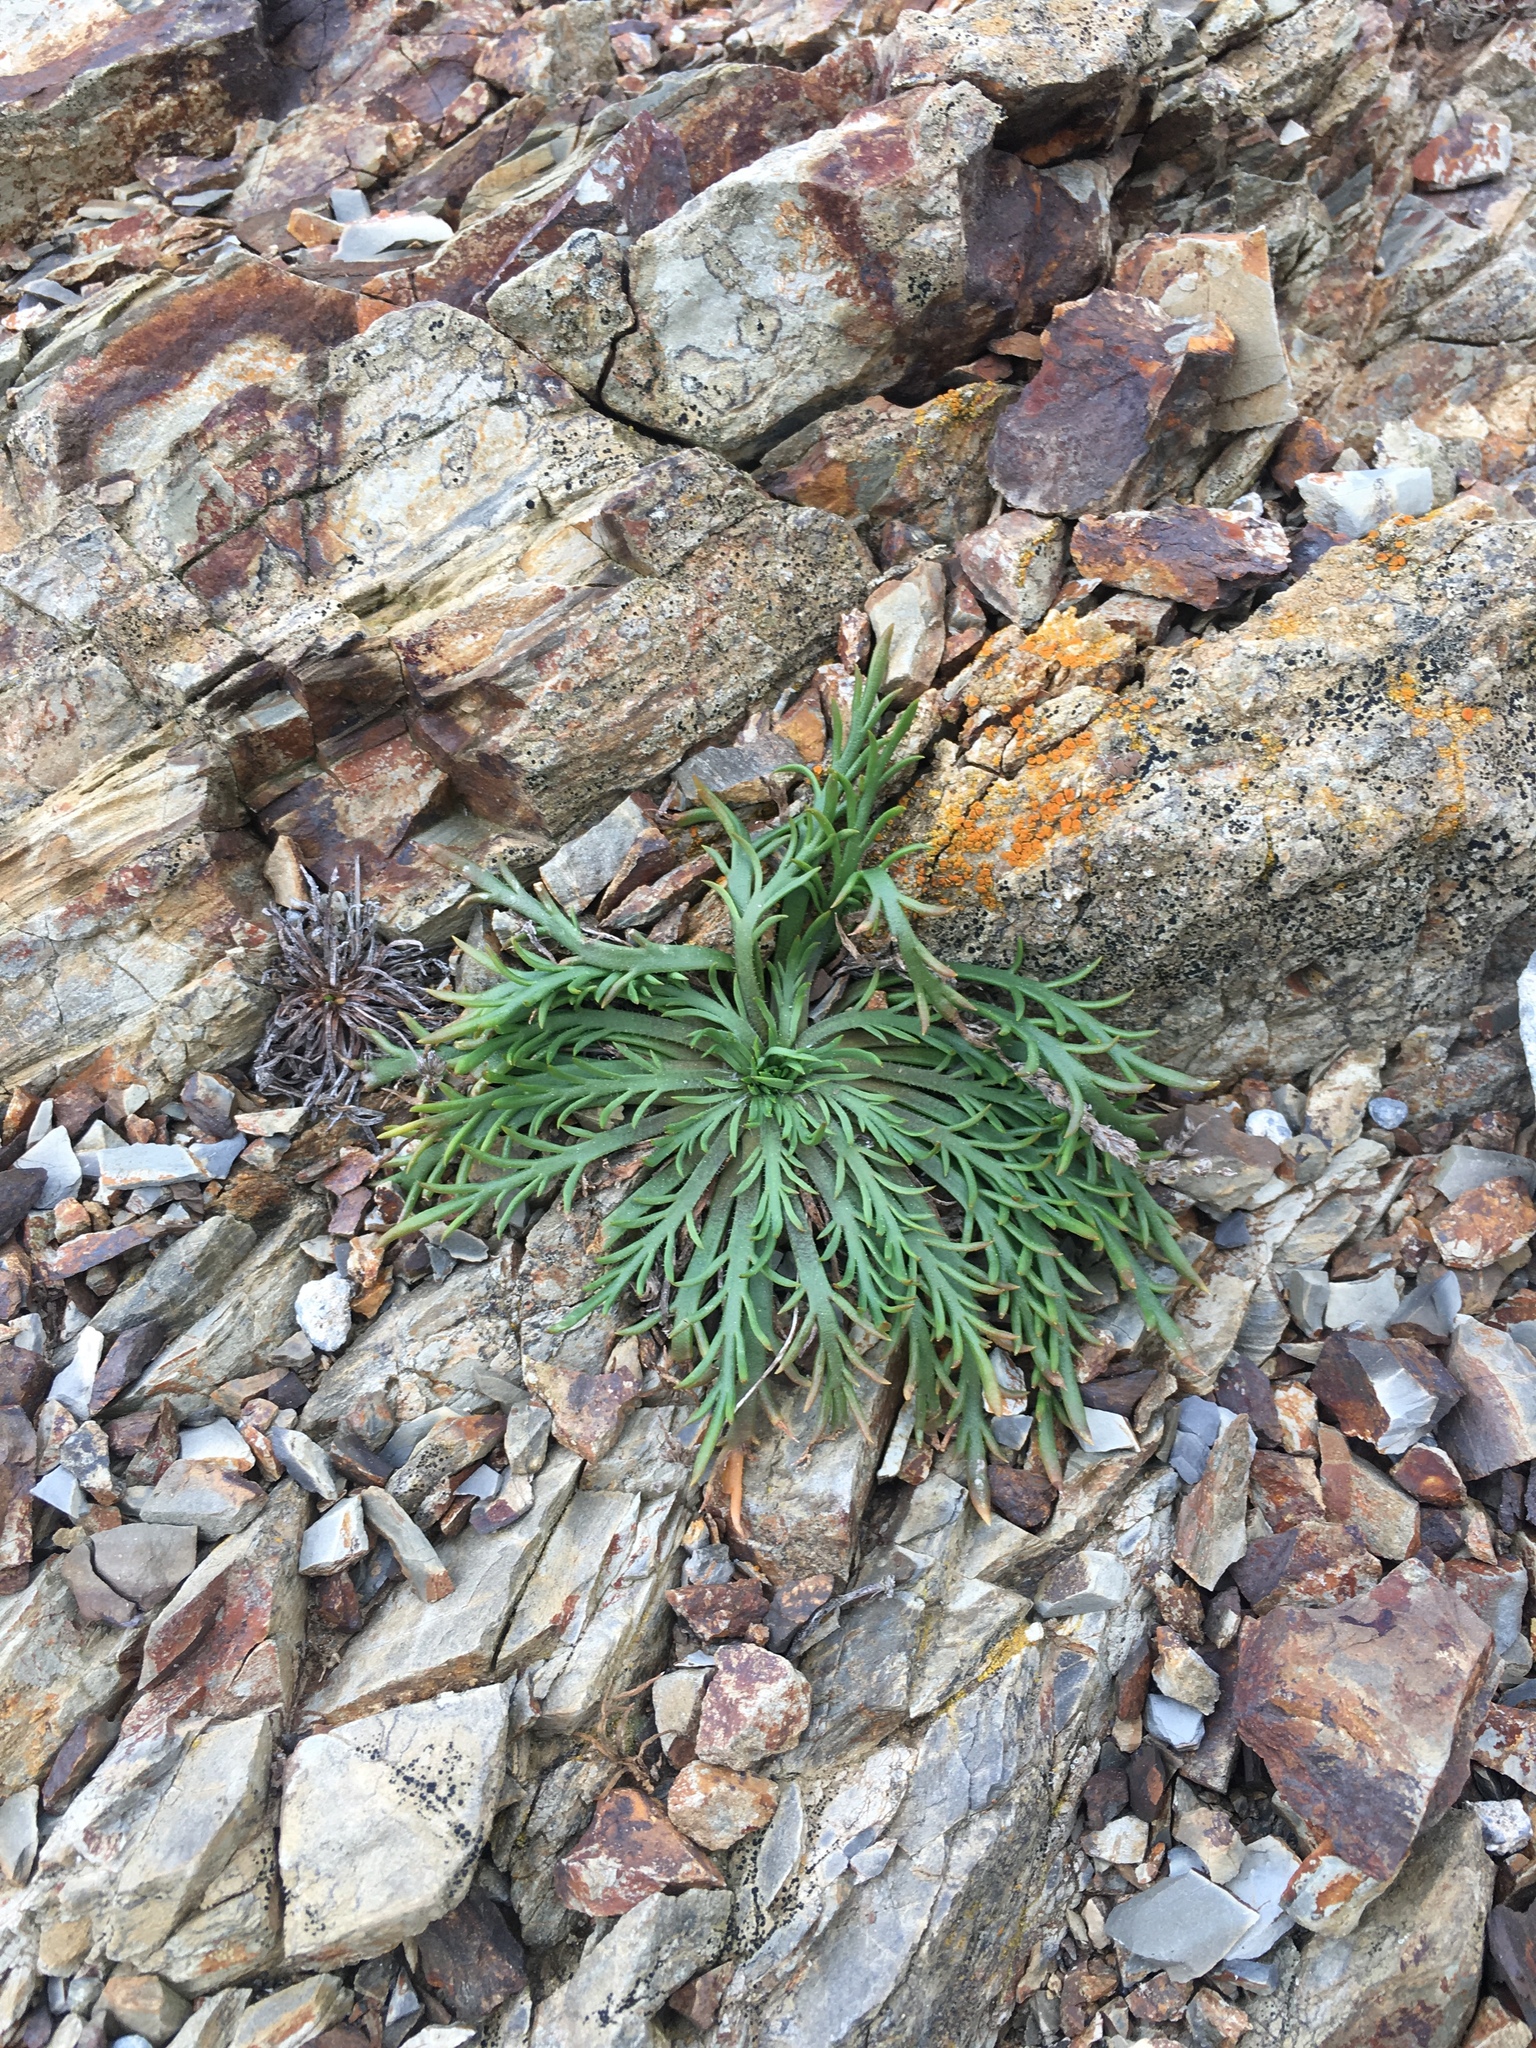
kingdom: Plantae
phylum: Tracheophyta
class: Magnoliopsida
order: Lamiales
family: Plantaginaceae
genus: Plantago
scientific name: Plantago coronopus
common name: Buck's-horn plantain
